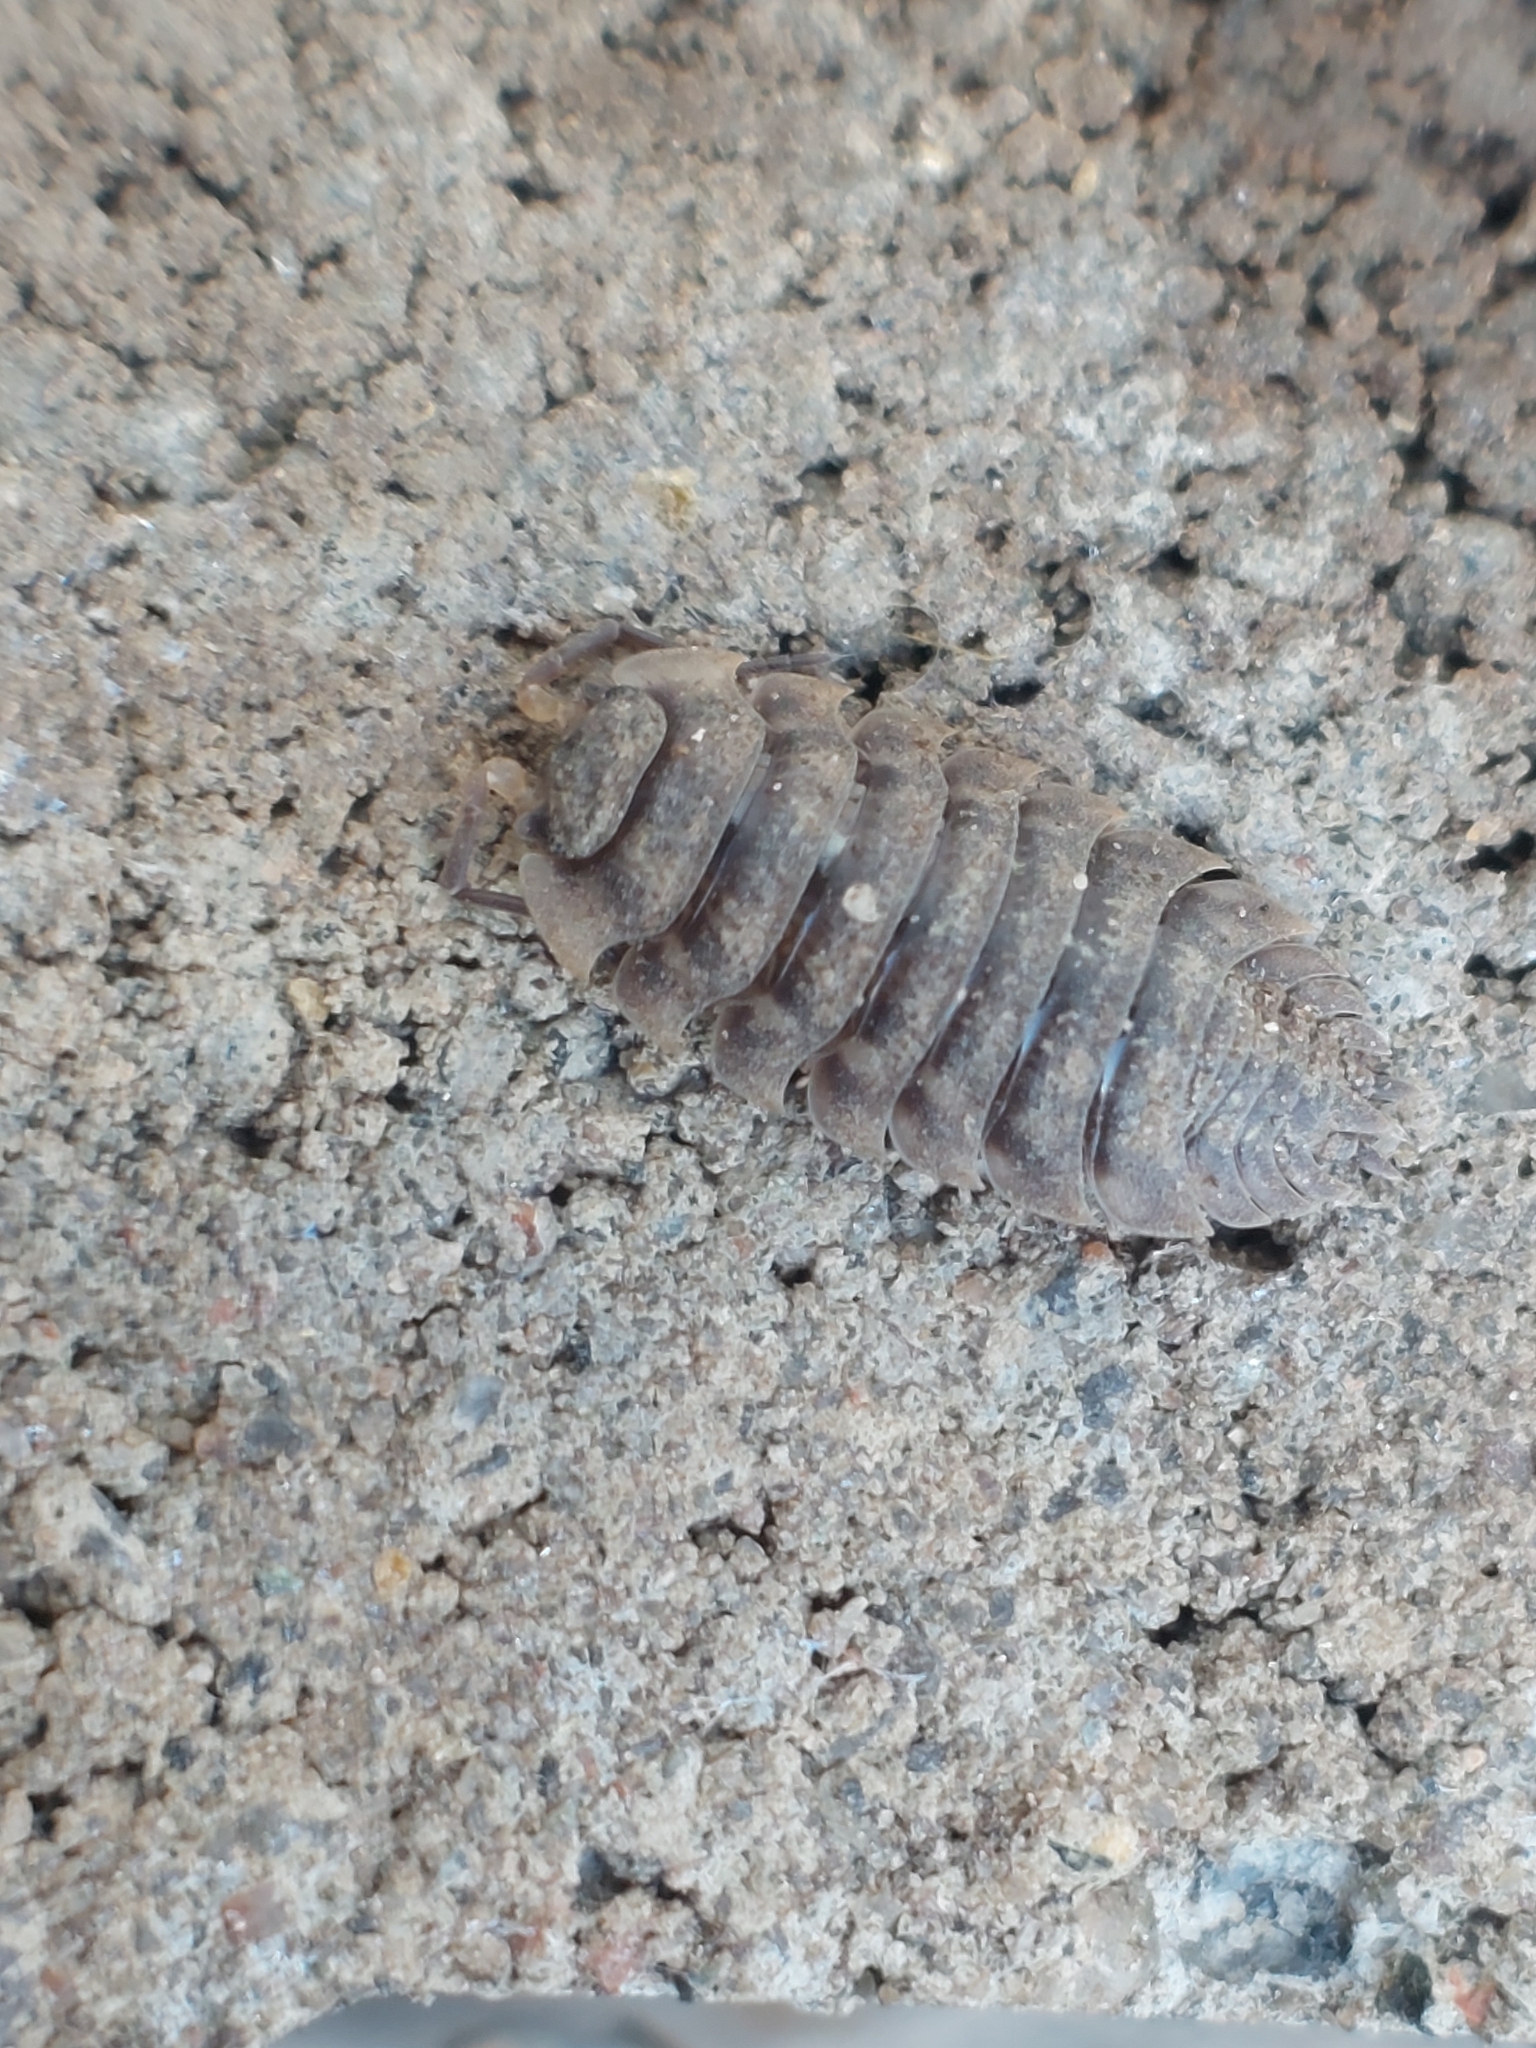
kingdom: Animalia
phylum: Arthropoda
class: Malacostraca
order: Isopoda
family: Oniscidae
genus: Oniscus
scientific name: Oniscus asellus
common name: Common shiny woodlouse
